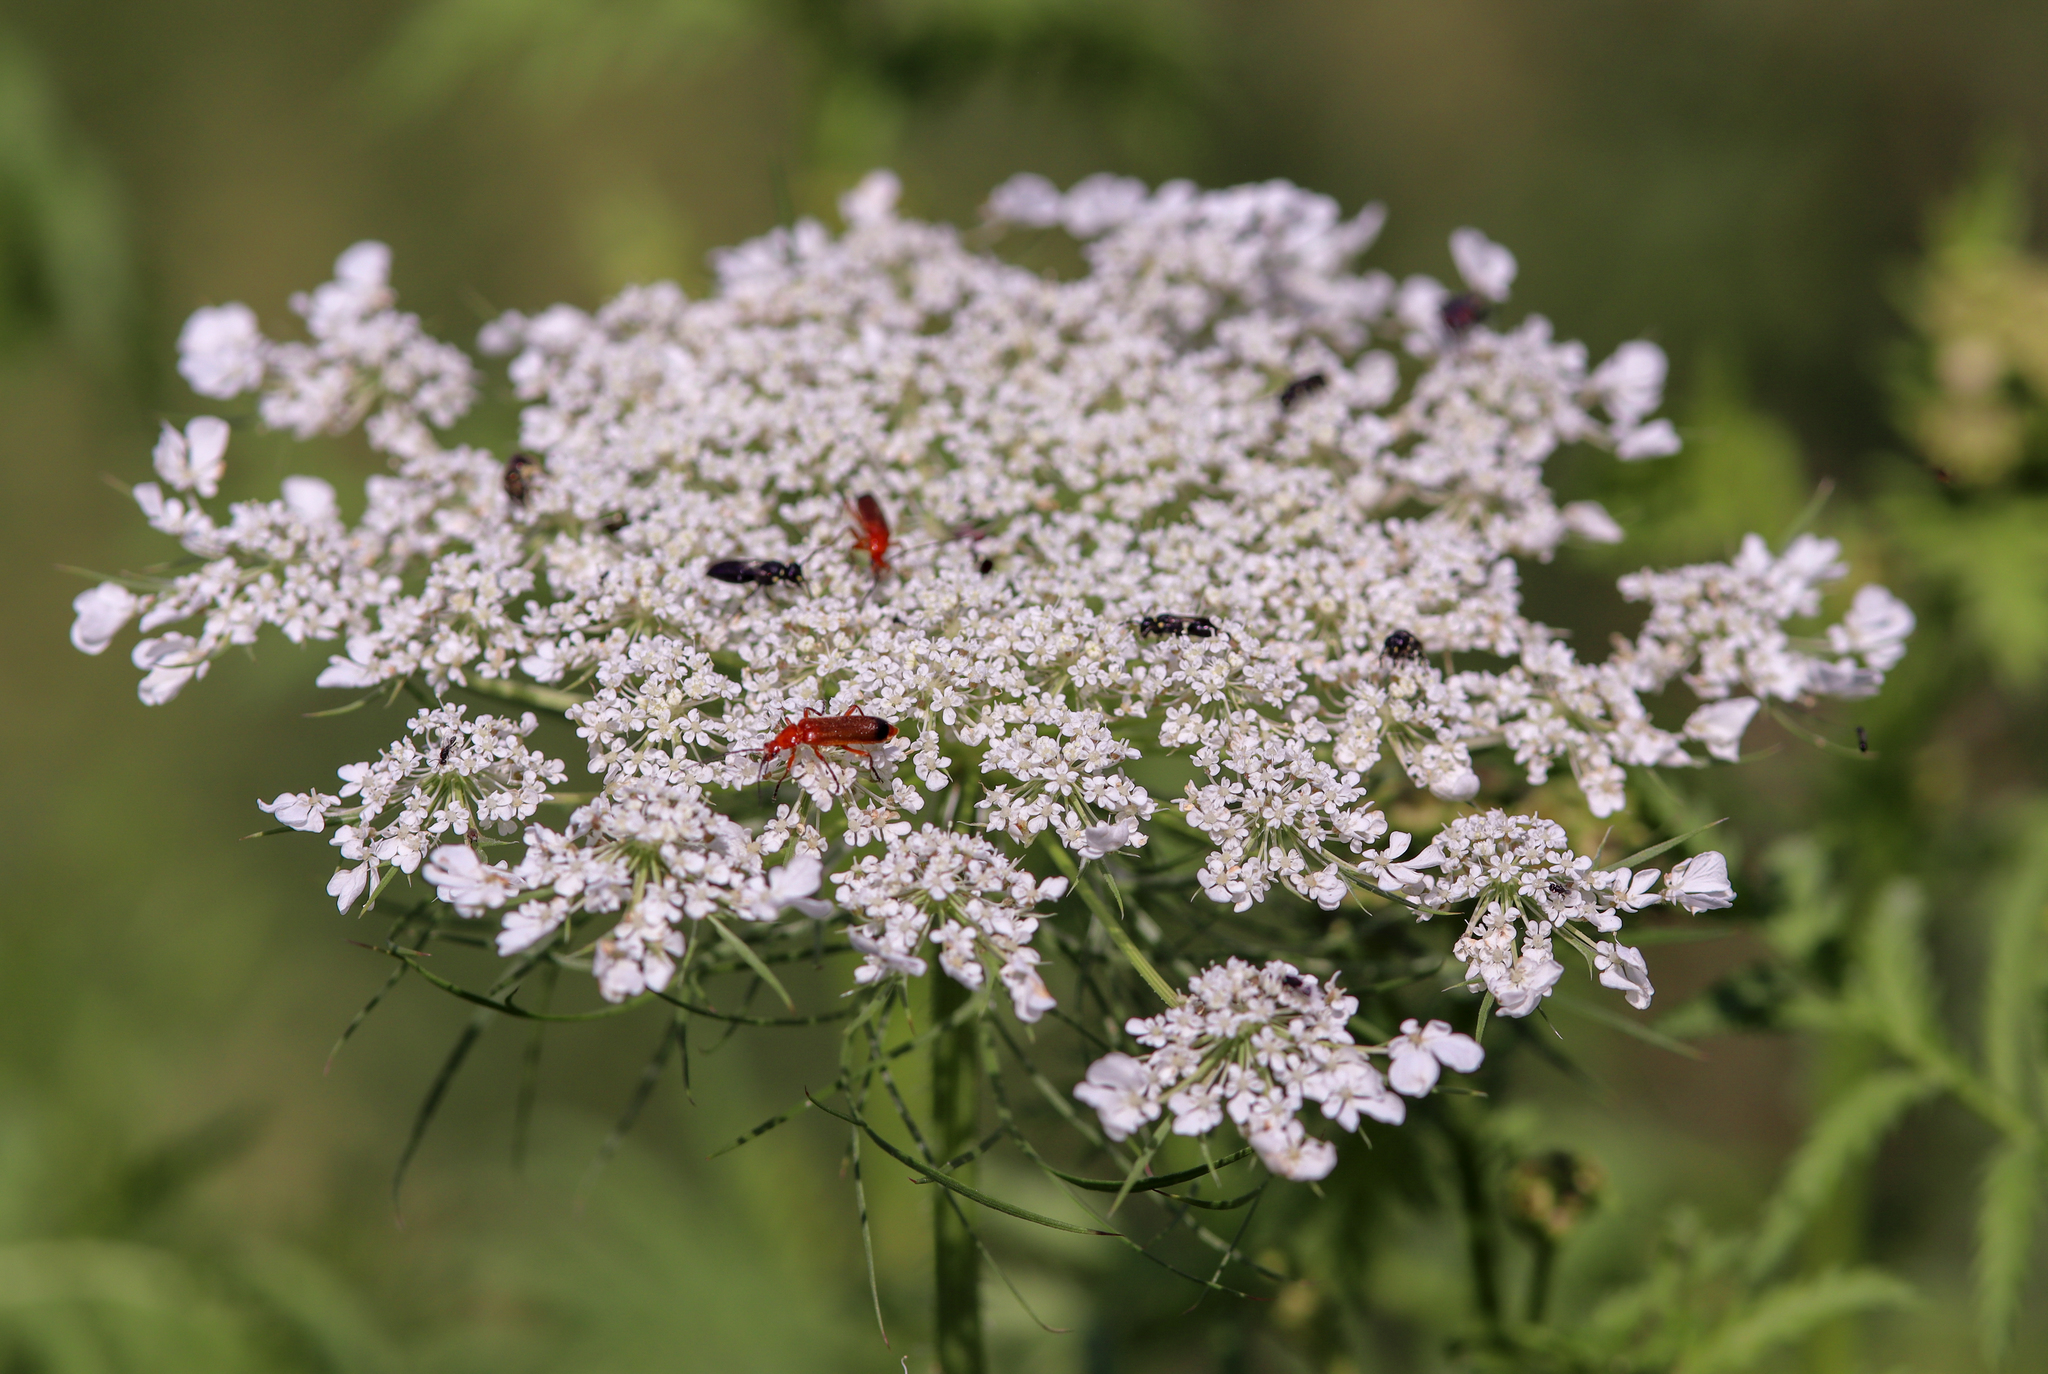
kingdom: Animalia
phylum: Arthropoda
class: Insecta
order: Coleoptera
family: Cantharidae
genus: Rhagonycha
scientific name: Rhagonycha fulva
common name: Common red soldier beetle
